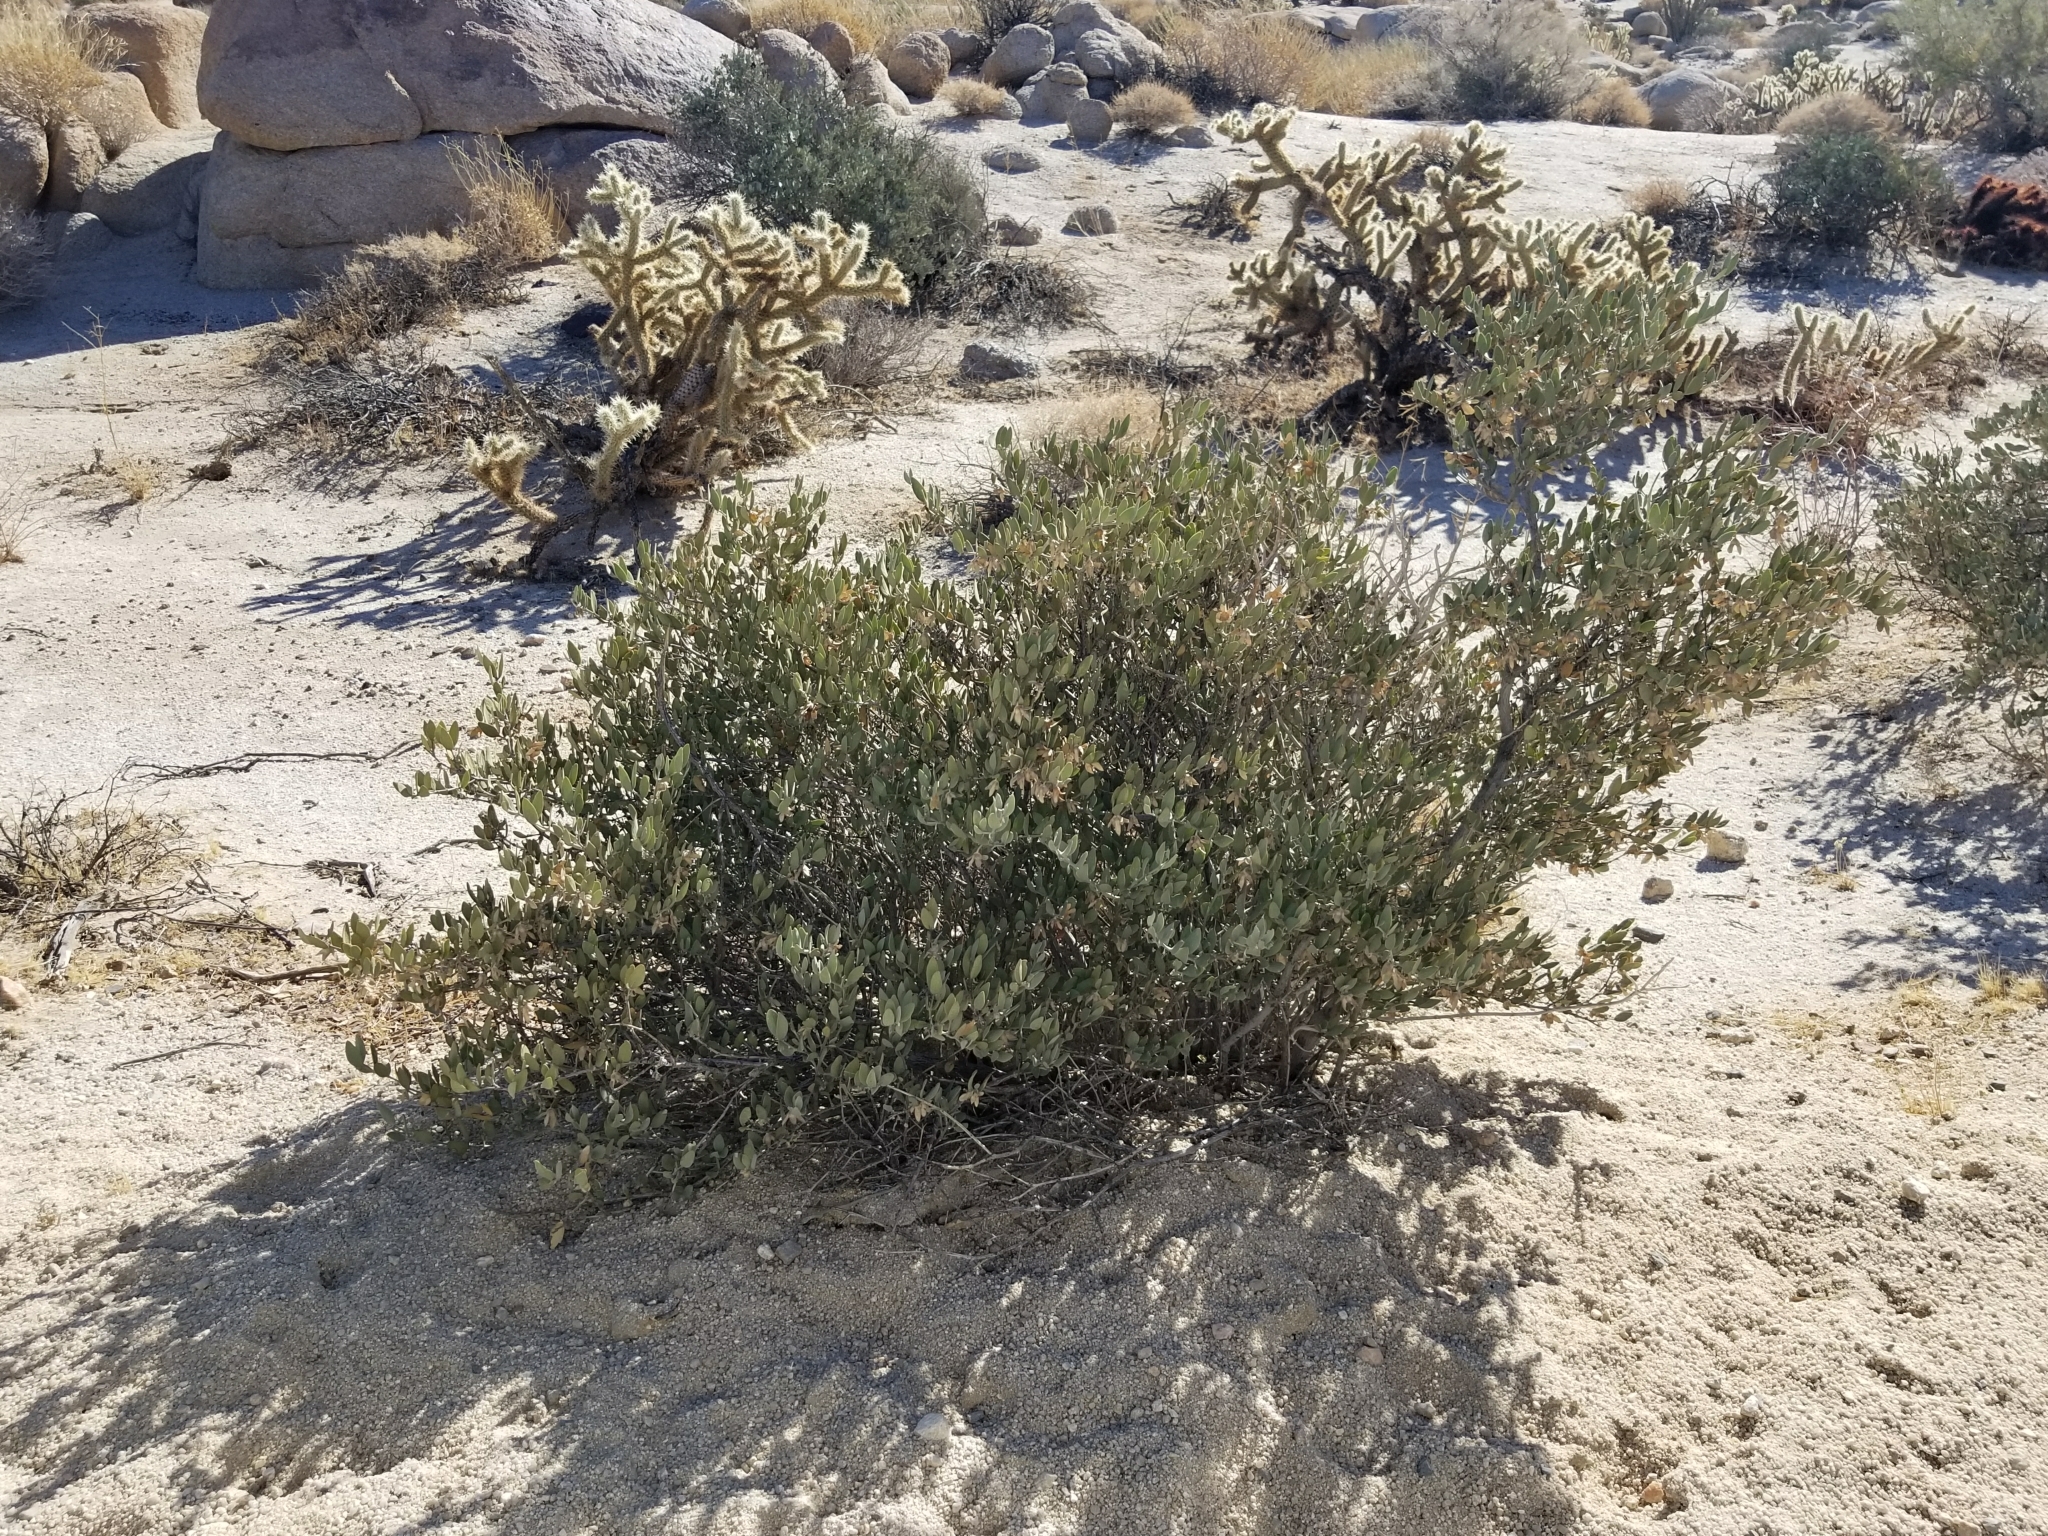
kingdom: Plantae
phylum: Tracheophyta
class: Magnoliopsida
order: Caryophyllales
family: Simmondsiaceae
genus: Simmondsia
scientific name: Simmondsia chinensis
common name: Jojoba
